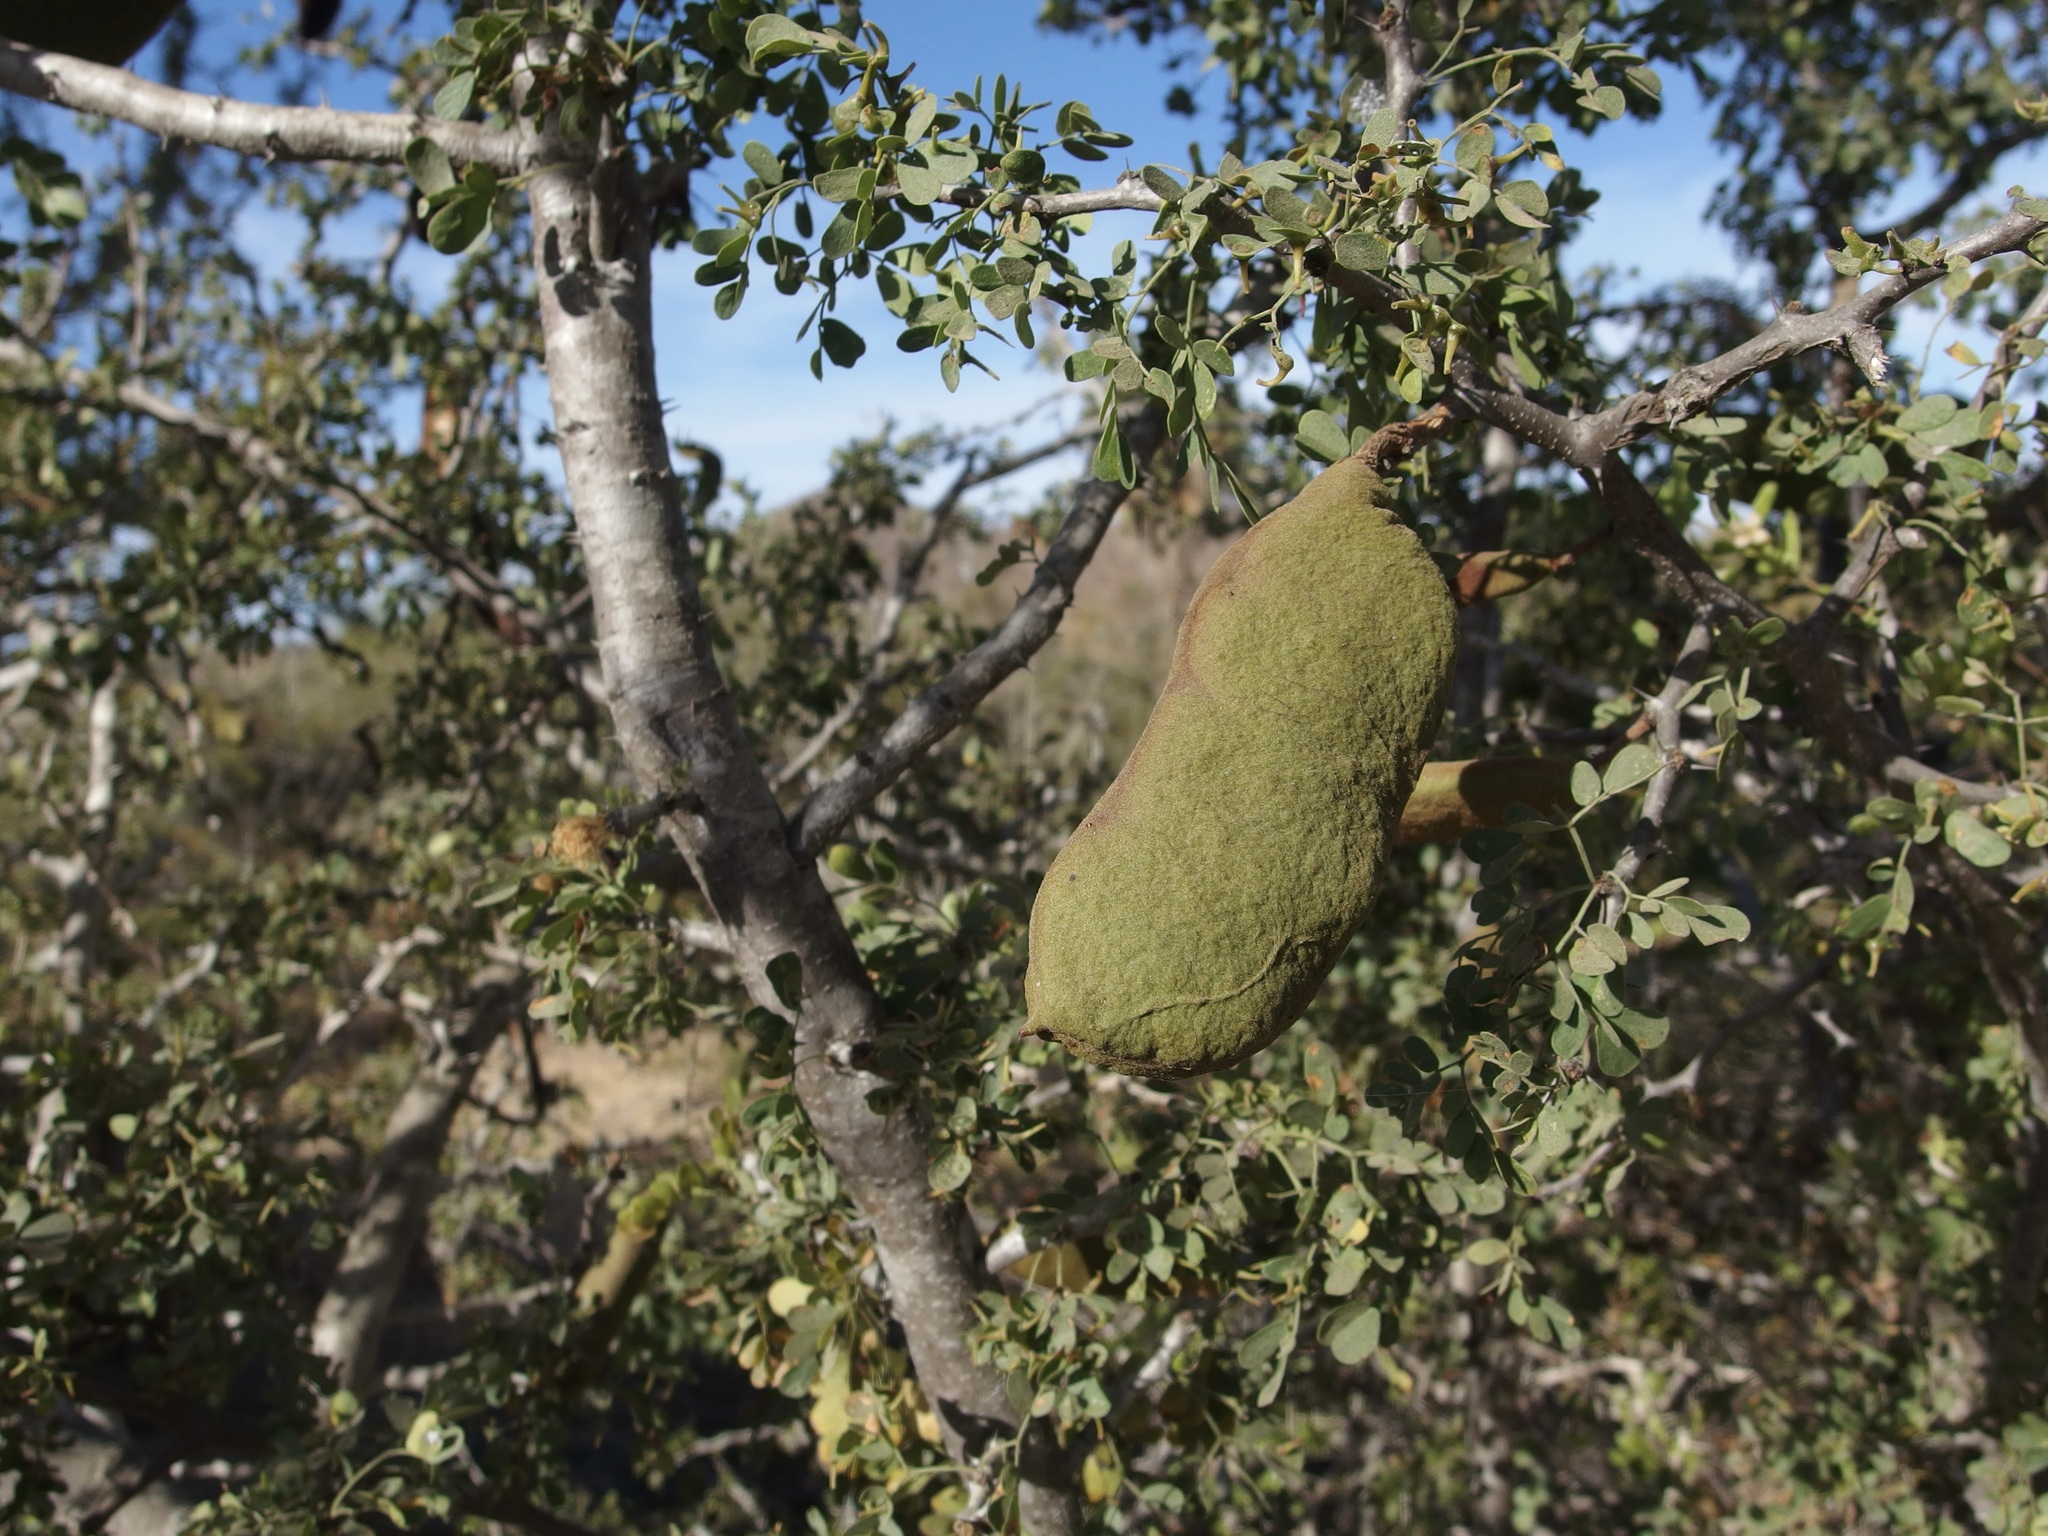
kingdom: Plantae
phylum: Tracheophyta
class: Magnoliopsida
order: Fabales
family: Fabaceae
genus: Ebenopsis
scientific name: Ebenopsis confinis
